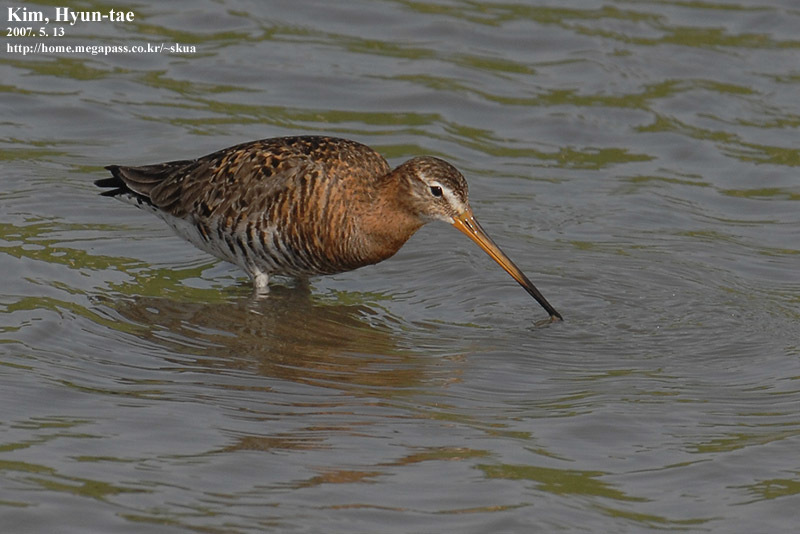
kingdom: Animalia
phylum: Chordata
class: Aves
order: Charadriiformes
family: Scolopacidae
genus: Limosa
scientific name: Limosa limosa
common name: Black-tailed godwit
